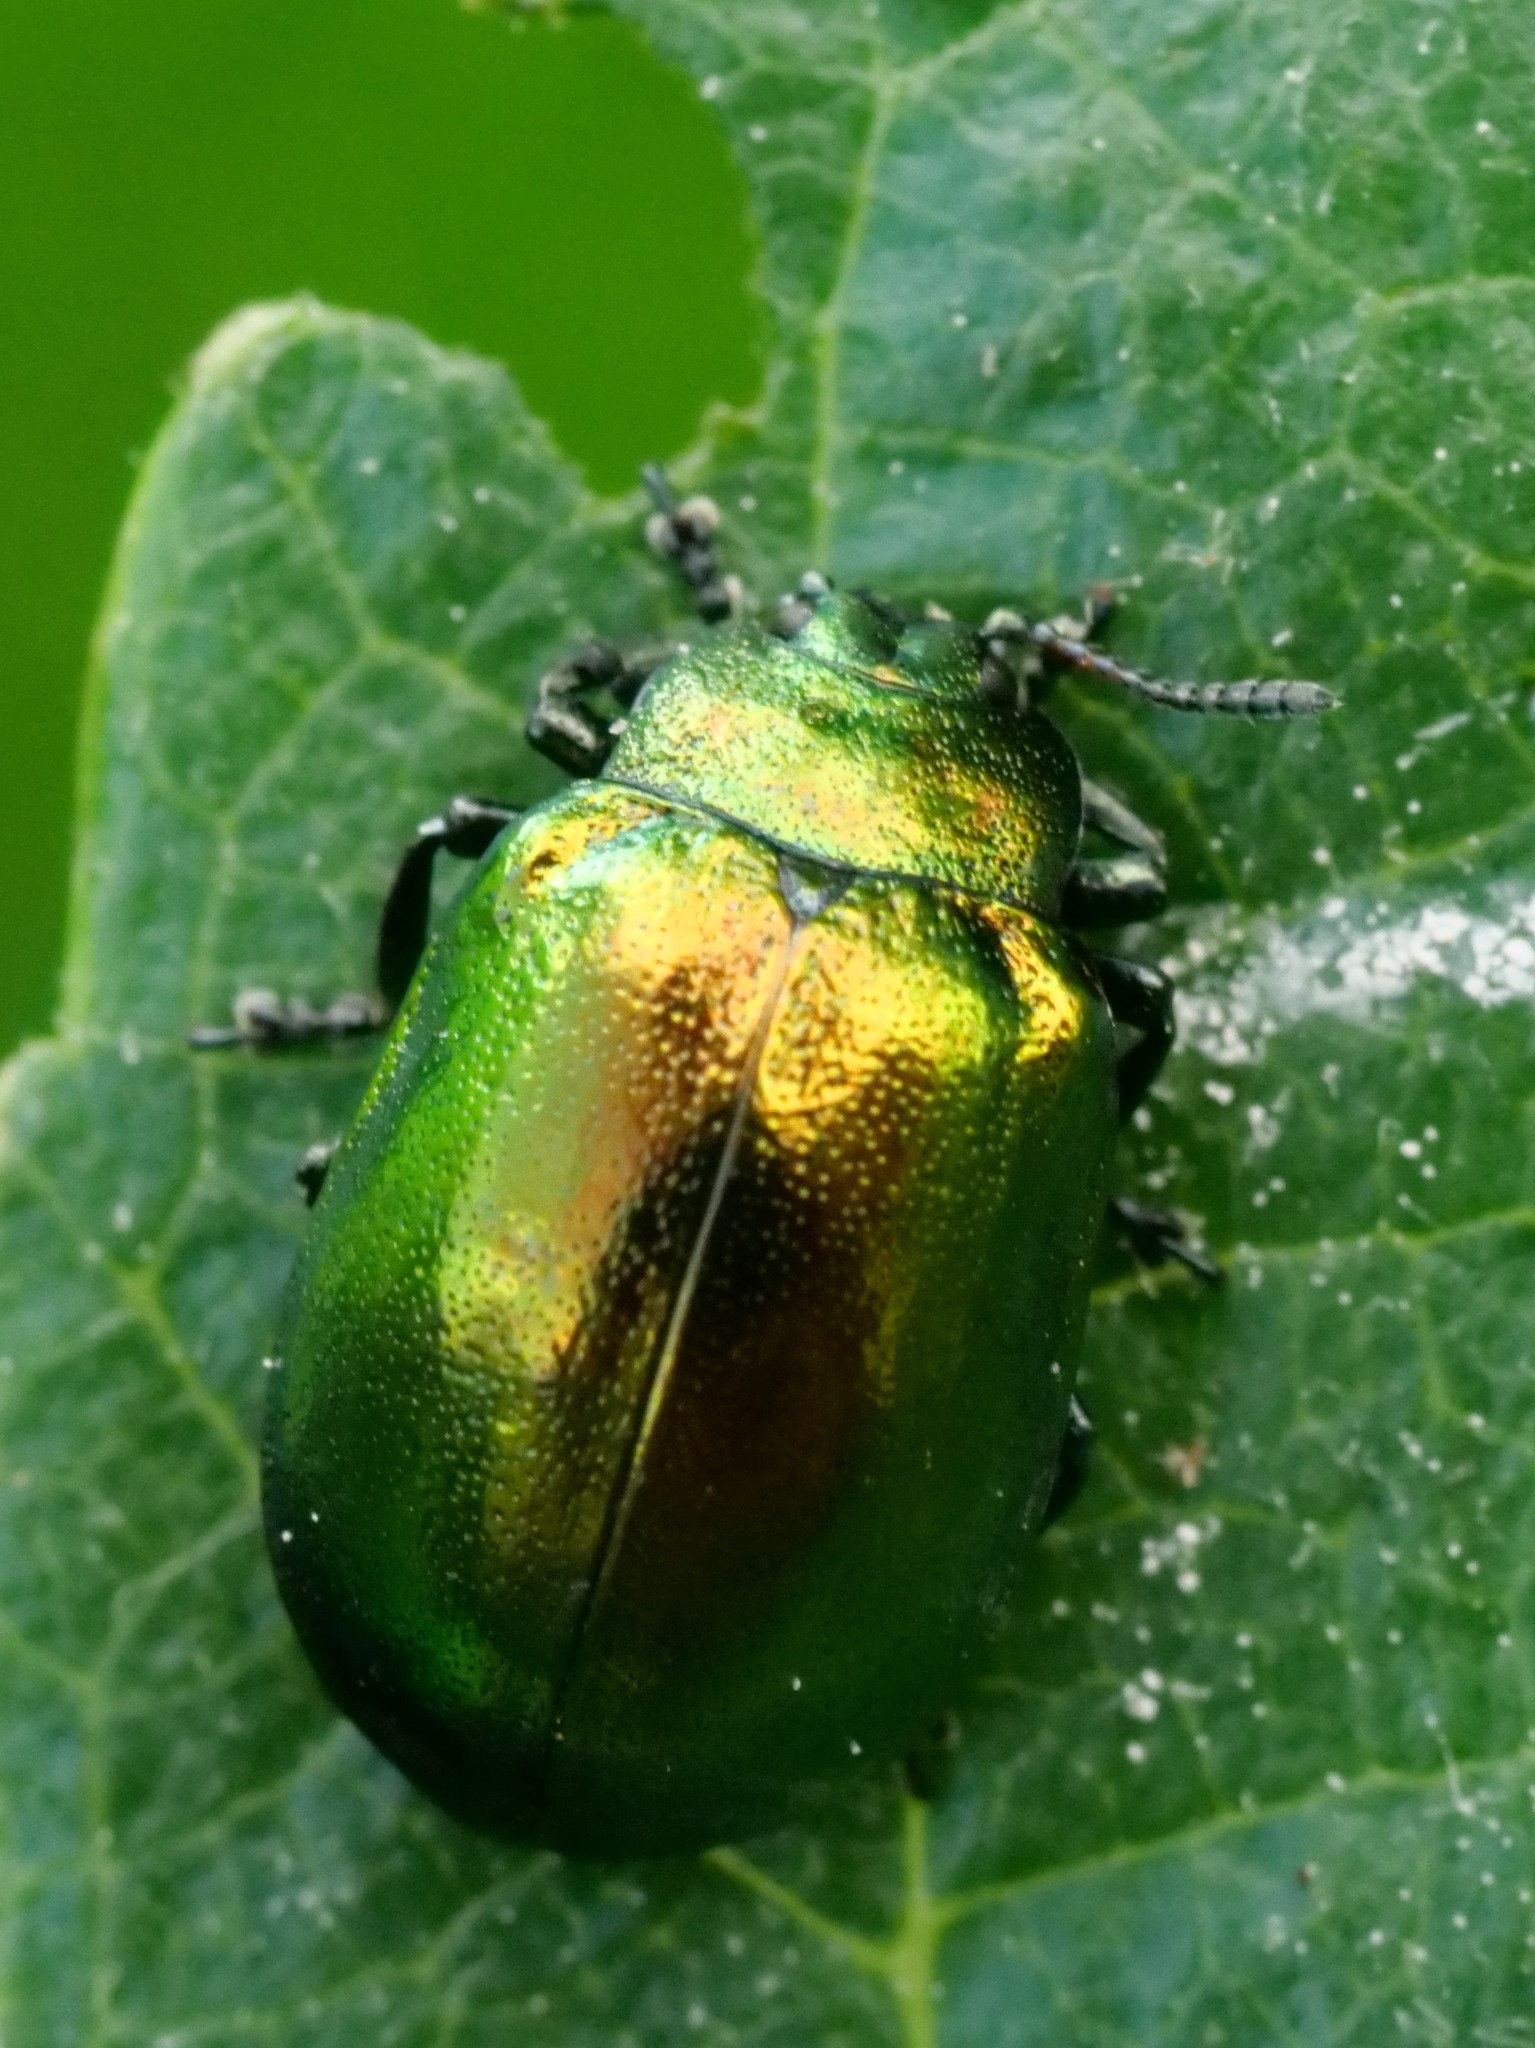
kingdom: Animalia
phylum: Arthropoda
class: Insecta
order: Coleoptera
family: Chrysomelidae
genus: Plagiosterna
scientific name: Plagiosterna aenea
